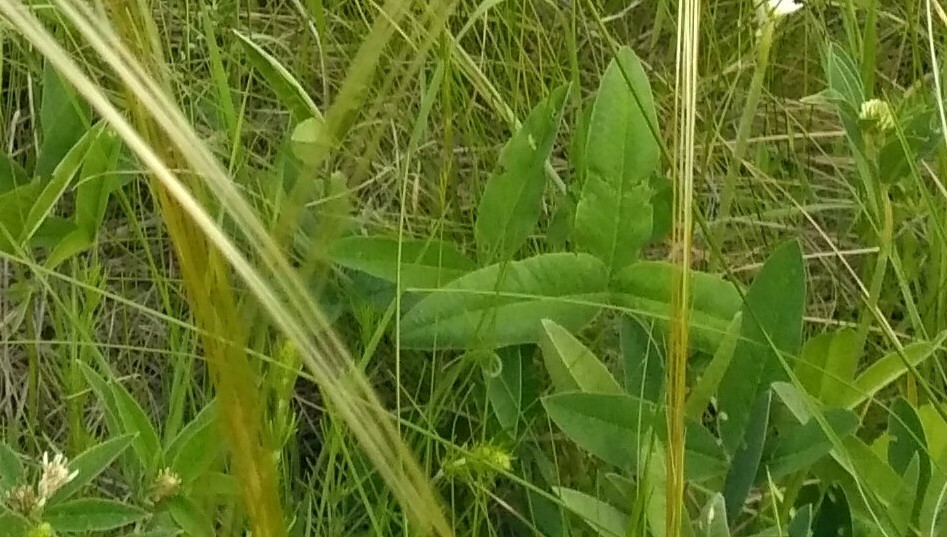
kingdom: Plantae
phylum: Tracheophyta
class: Magnoliopsida
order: Fabales
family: Fabaceae
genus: Trifolium
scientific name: Trifolium montanum
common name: Mountain clover
